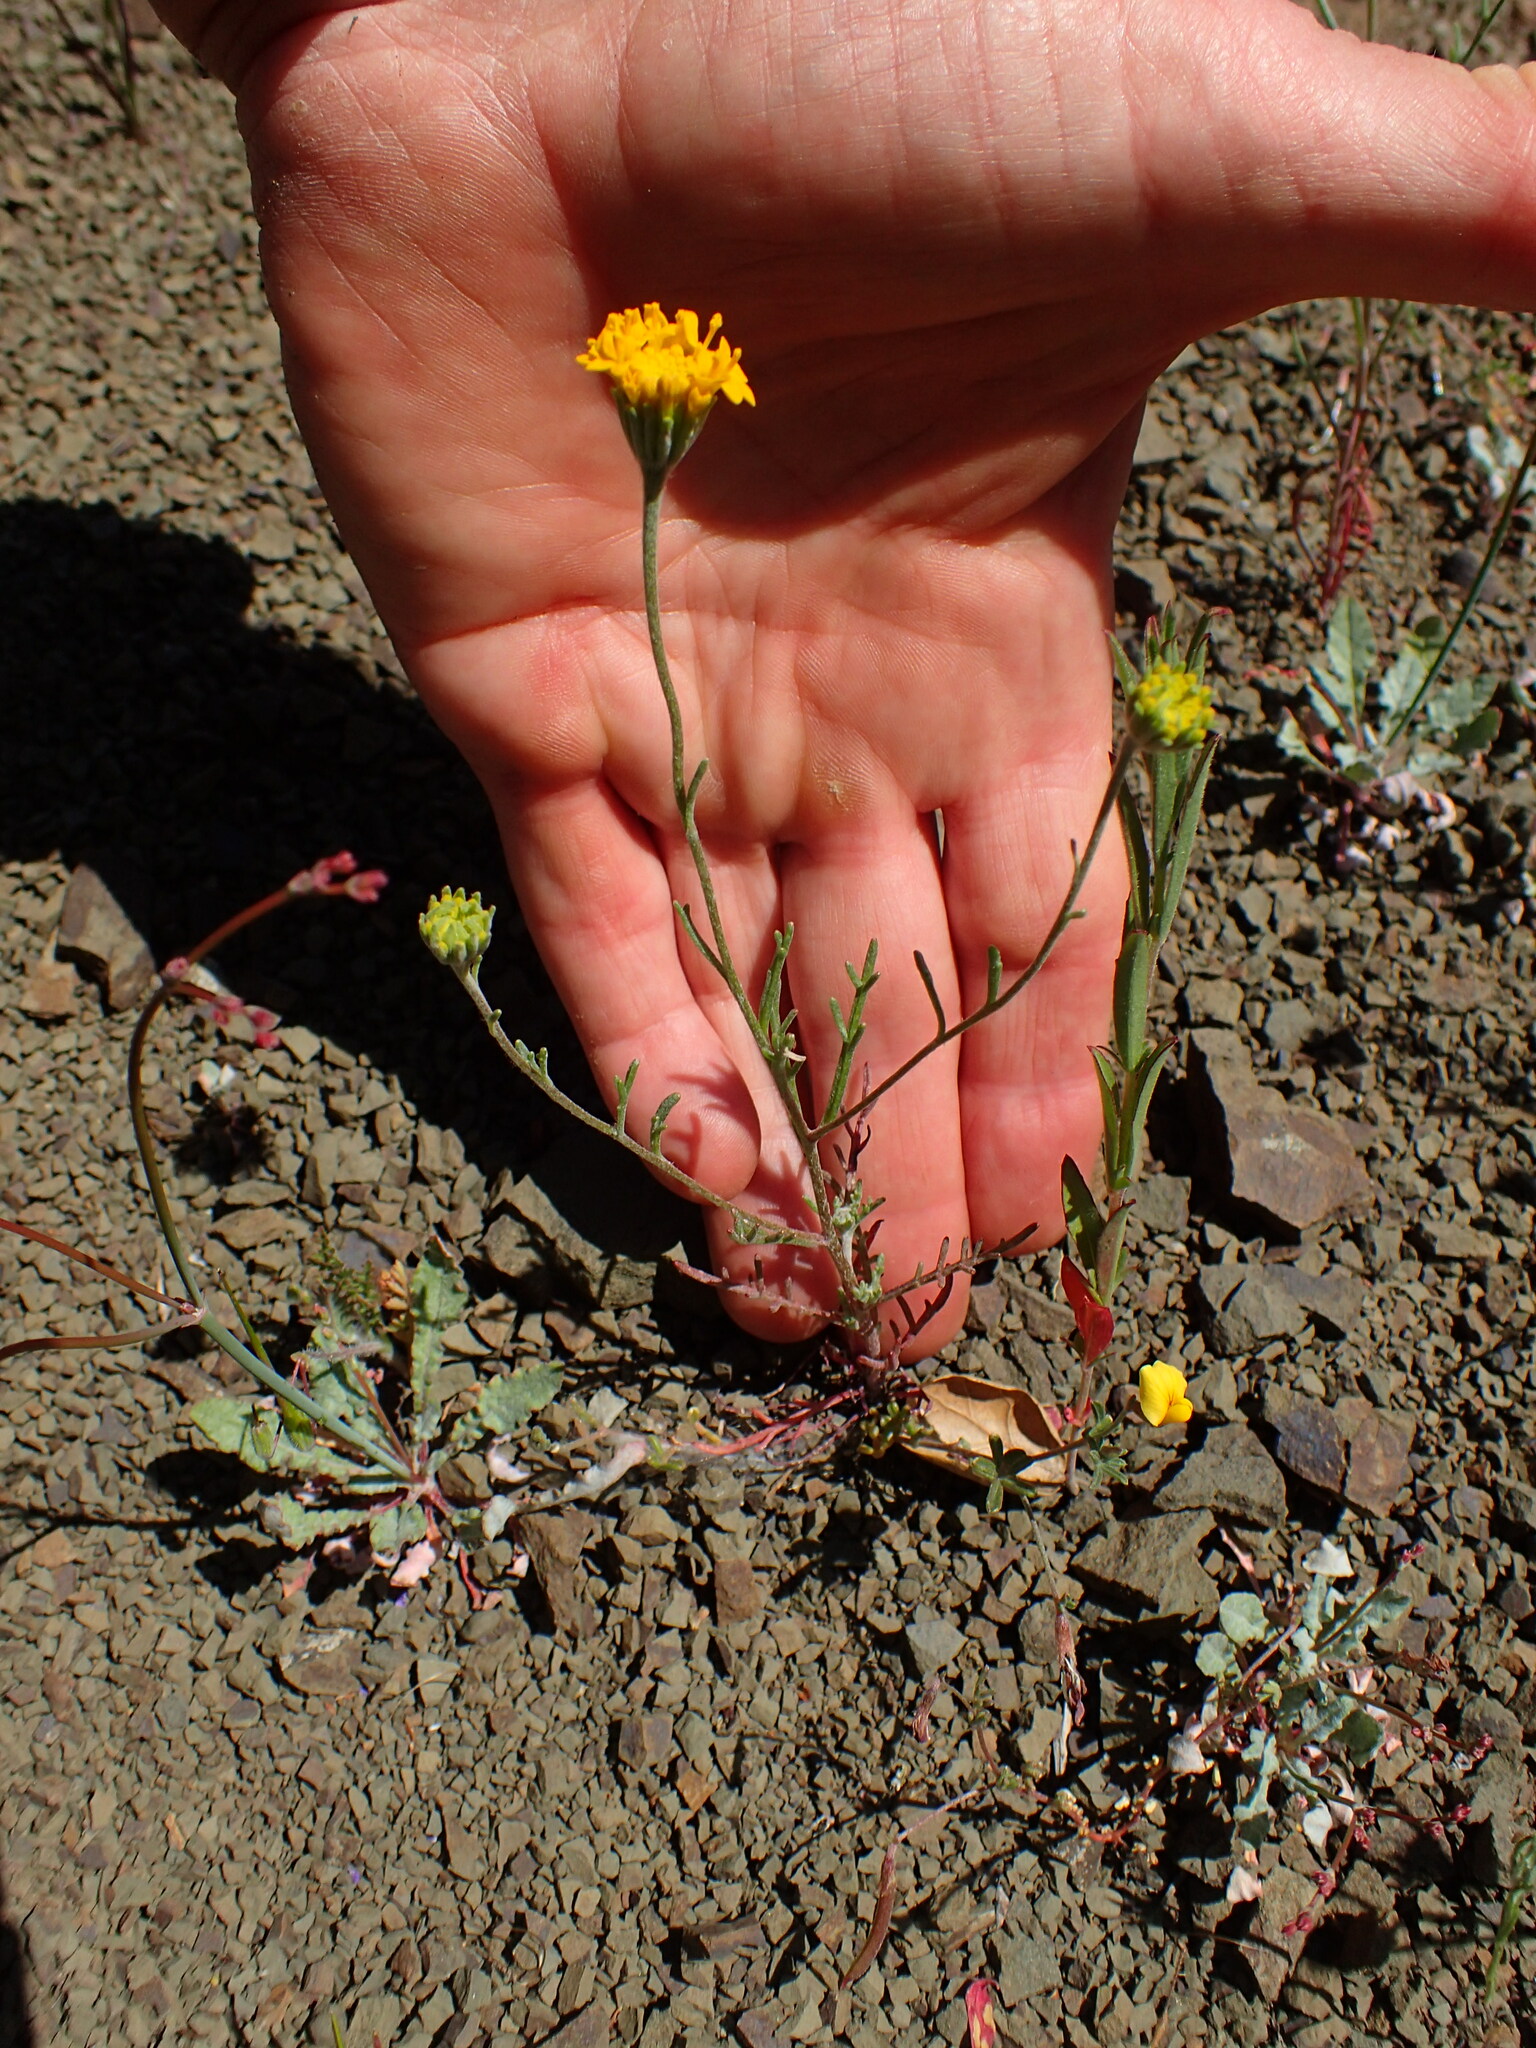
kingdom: Plantae
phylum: Tracheophyta
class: Magnoliopsida
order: Asterales
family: Asteraceae
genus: Chaenactis
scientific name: Chaenactis glabriuscula
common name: Yellow pincushion
